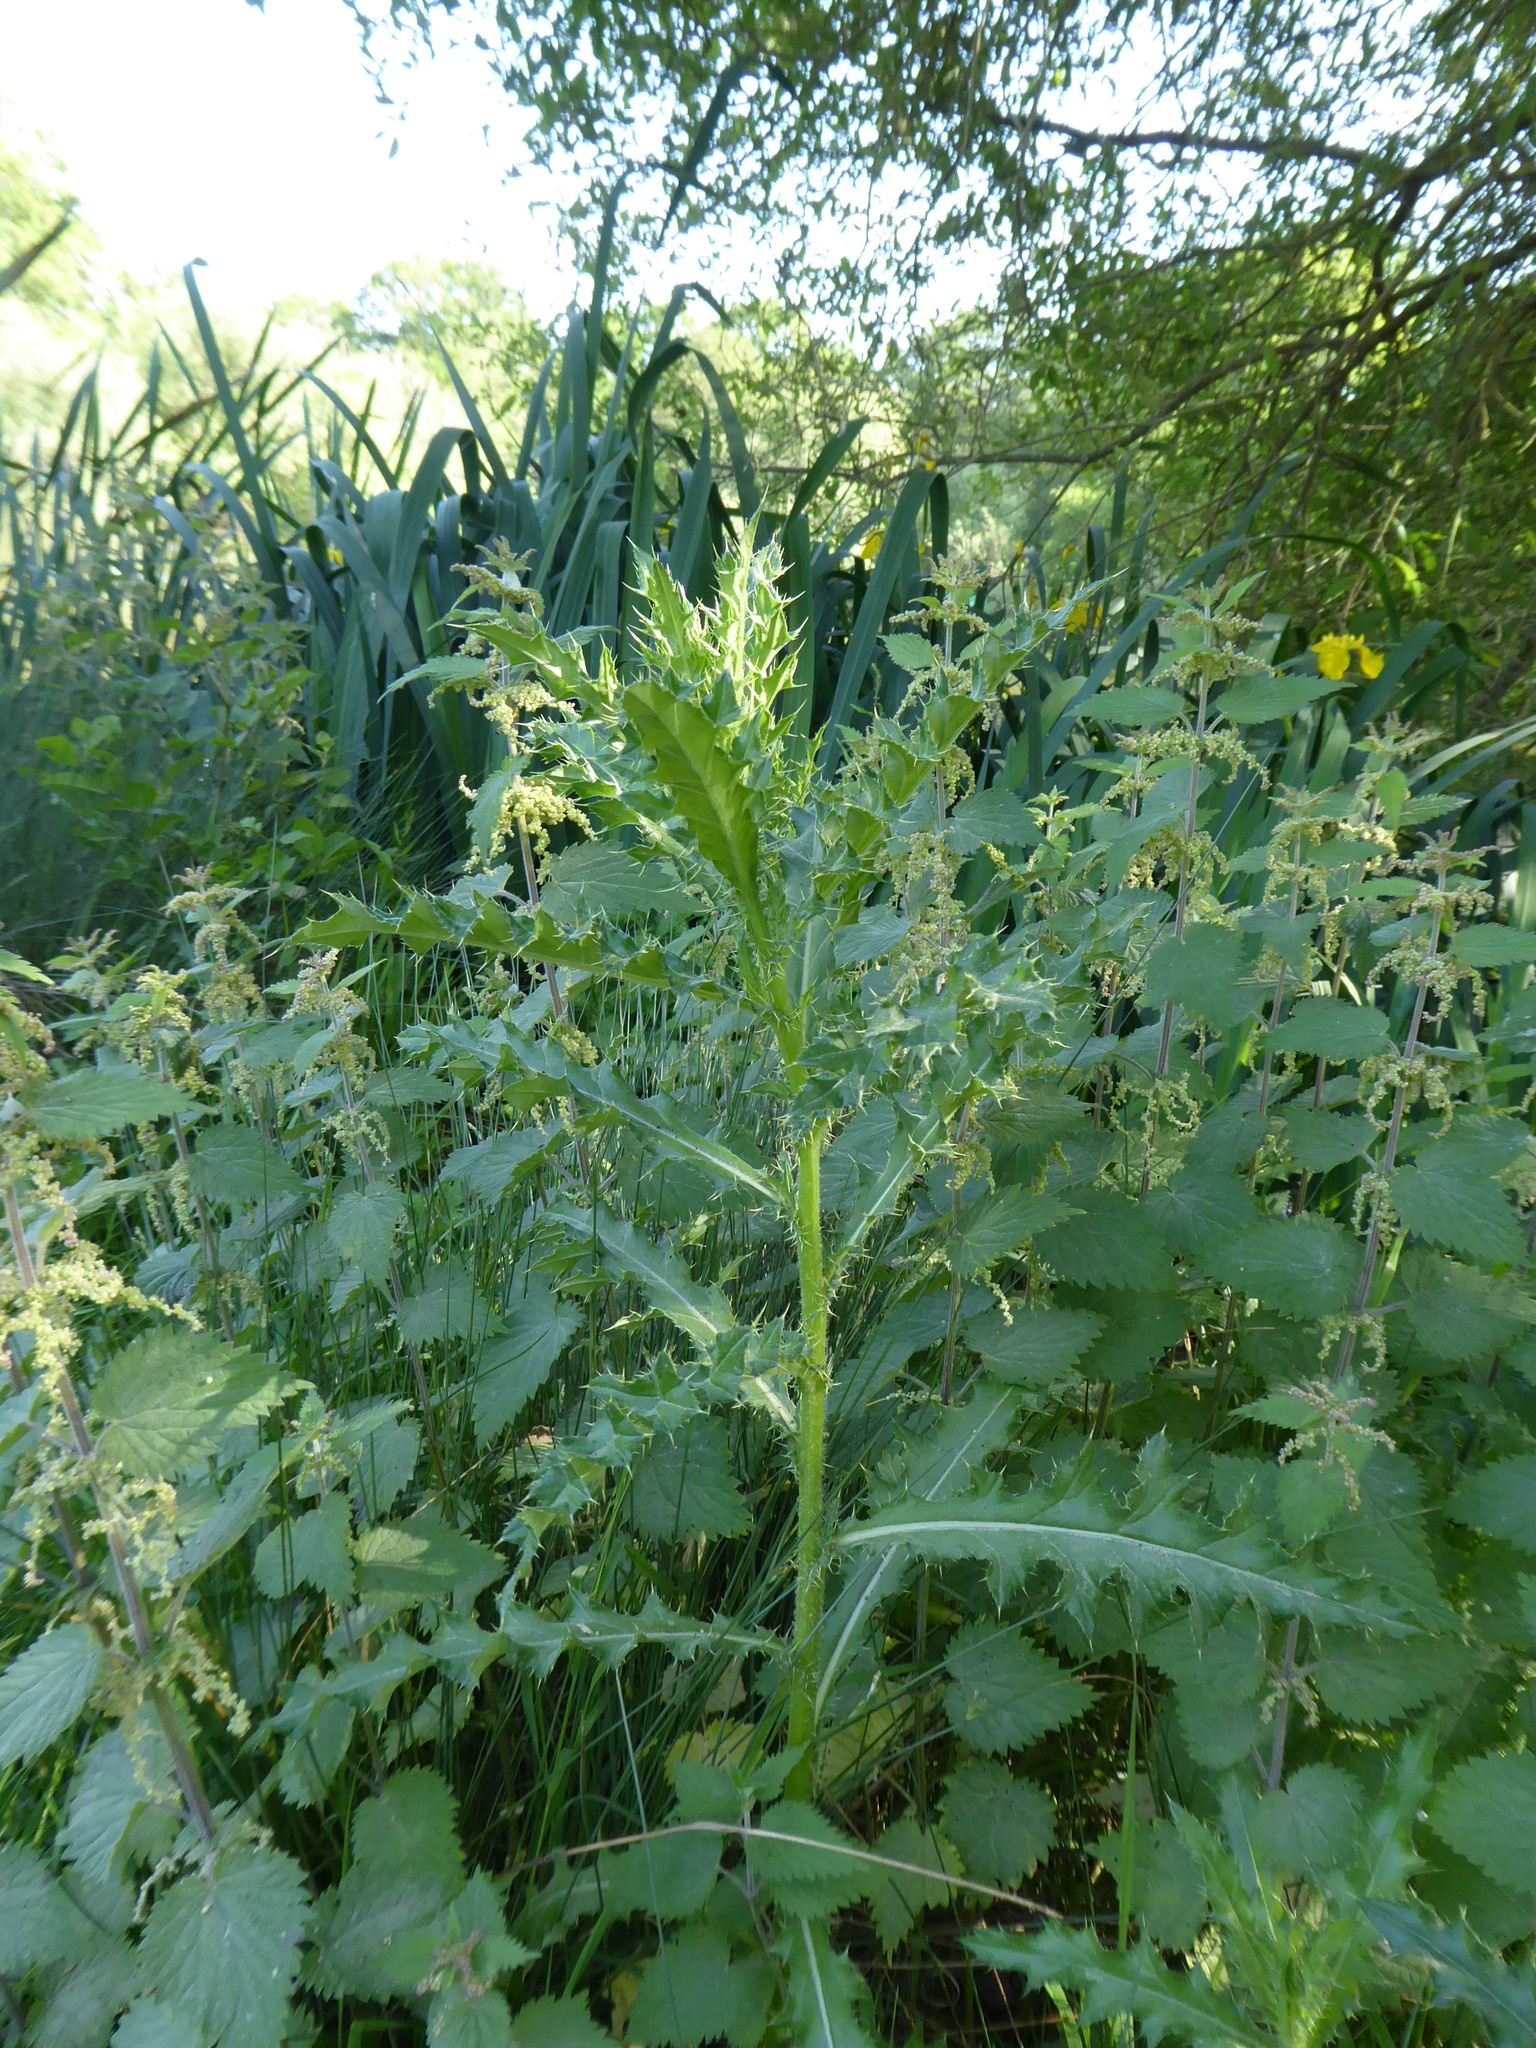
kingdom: Plantae
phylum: Tracheophyta
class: Magnoliopsida
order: Asterales
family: Asteraceae
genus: Cirsium
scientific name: Cirsium arvense
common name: Creeping thistle
